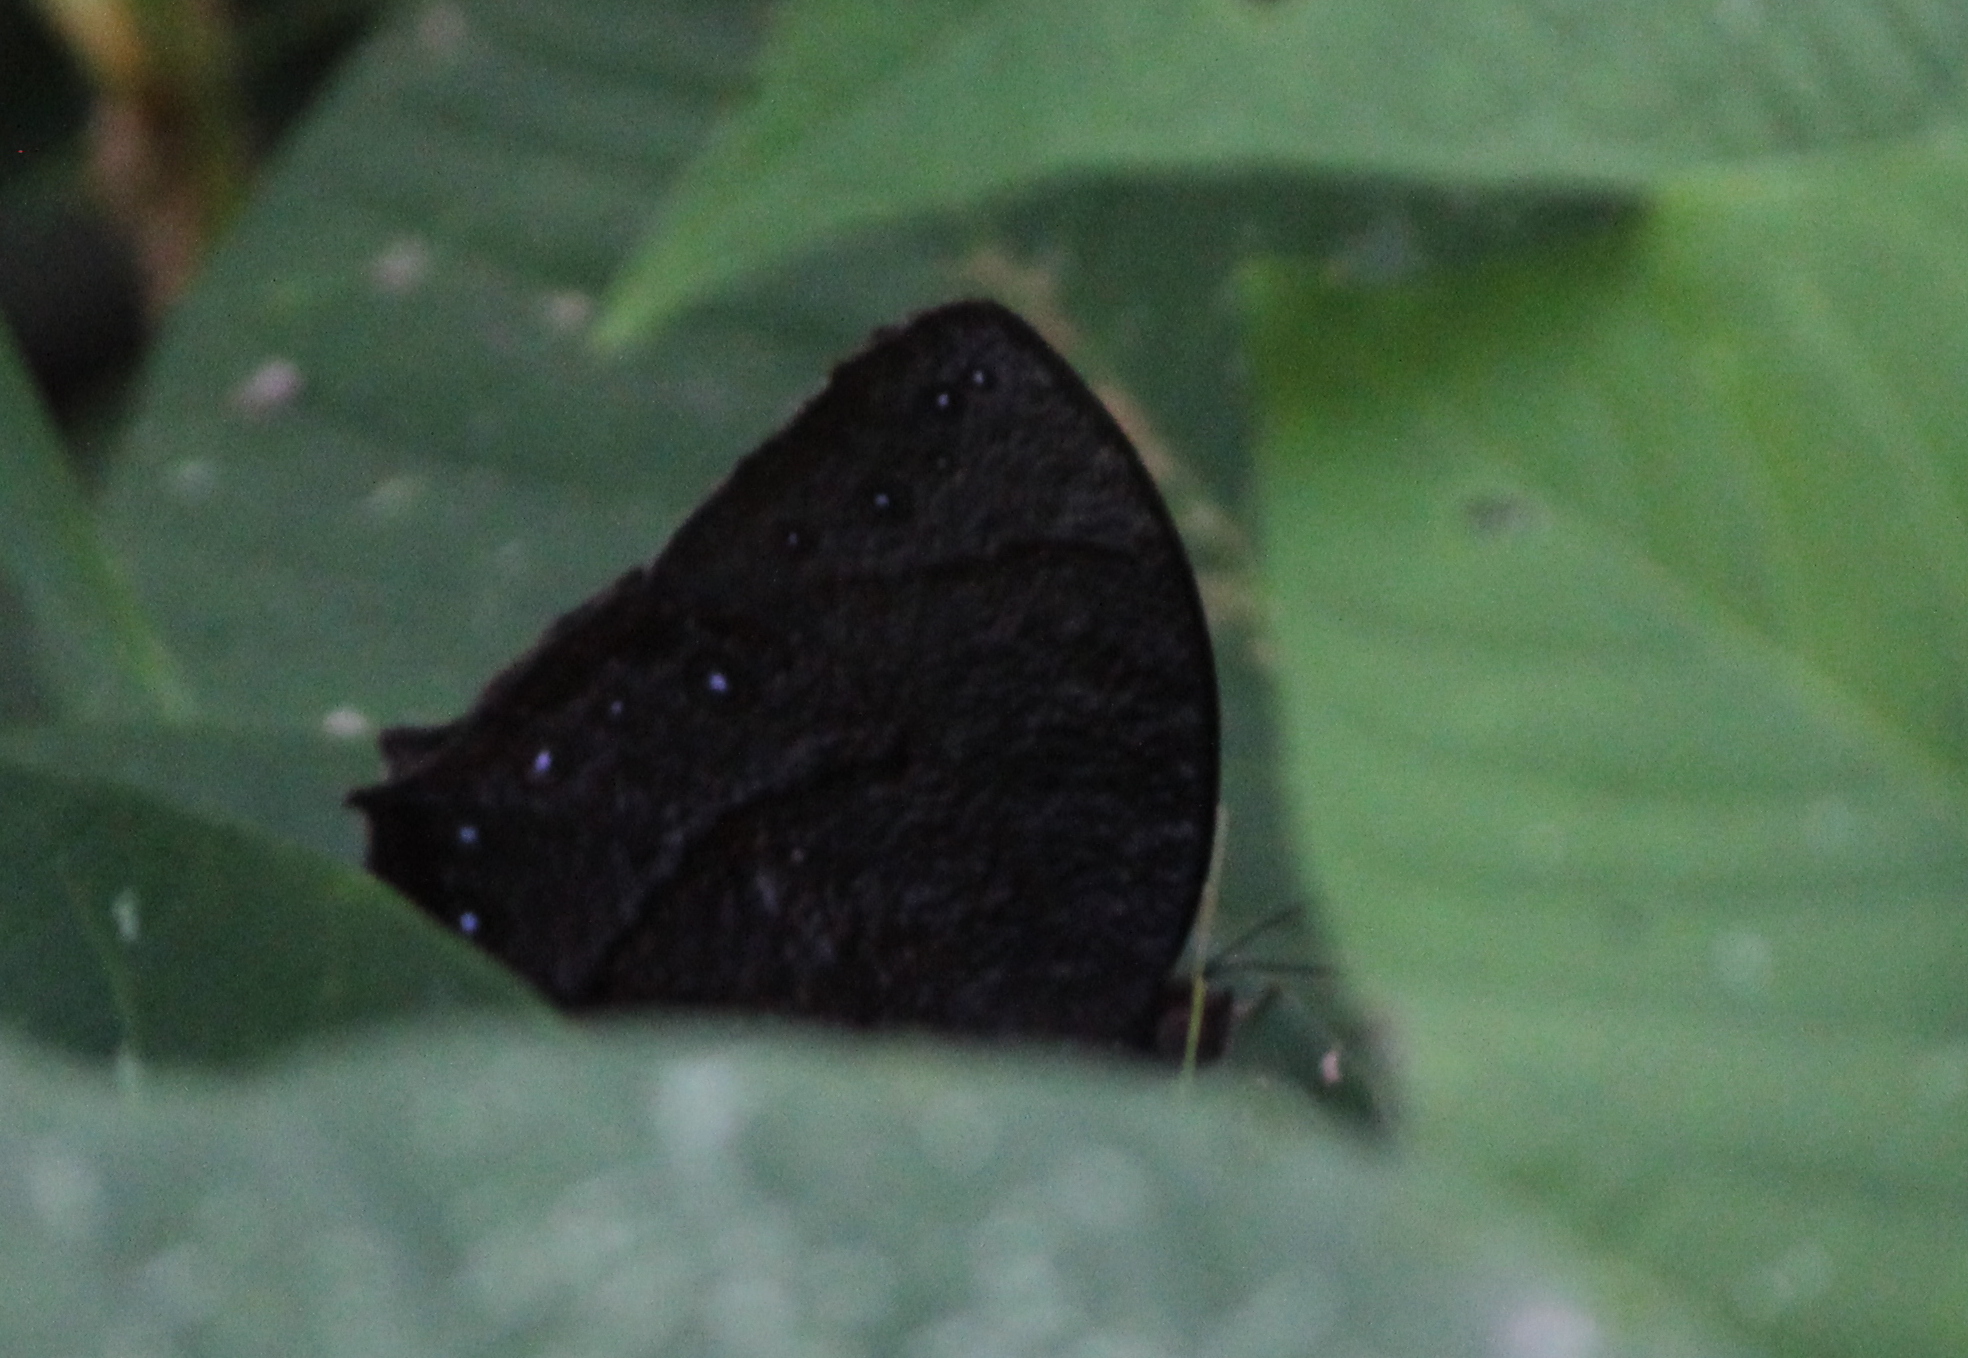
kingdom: Animalia
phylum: Arthropoda
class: Insecta
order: Lepidoptera
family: Nymphalidae
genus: Melanitis
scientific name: Melanitis phedima
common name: Dark evening brown
